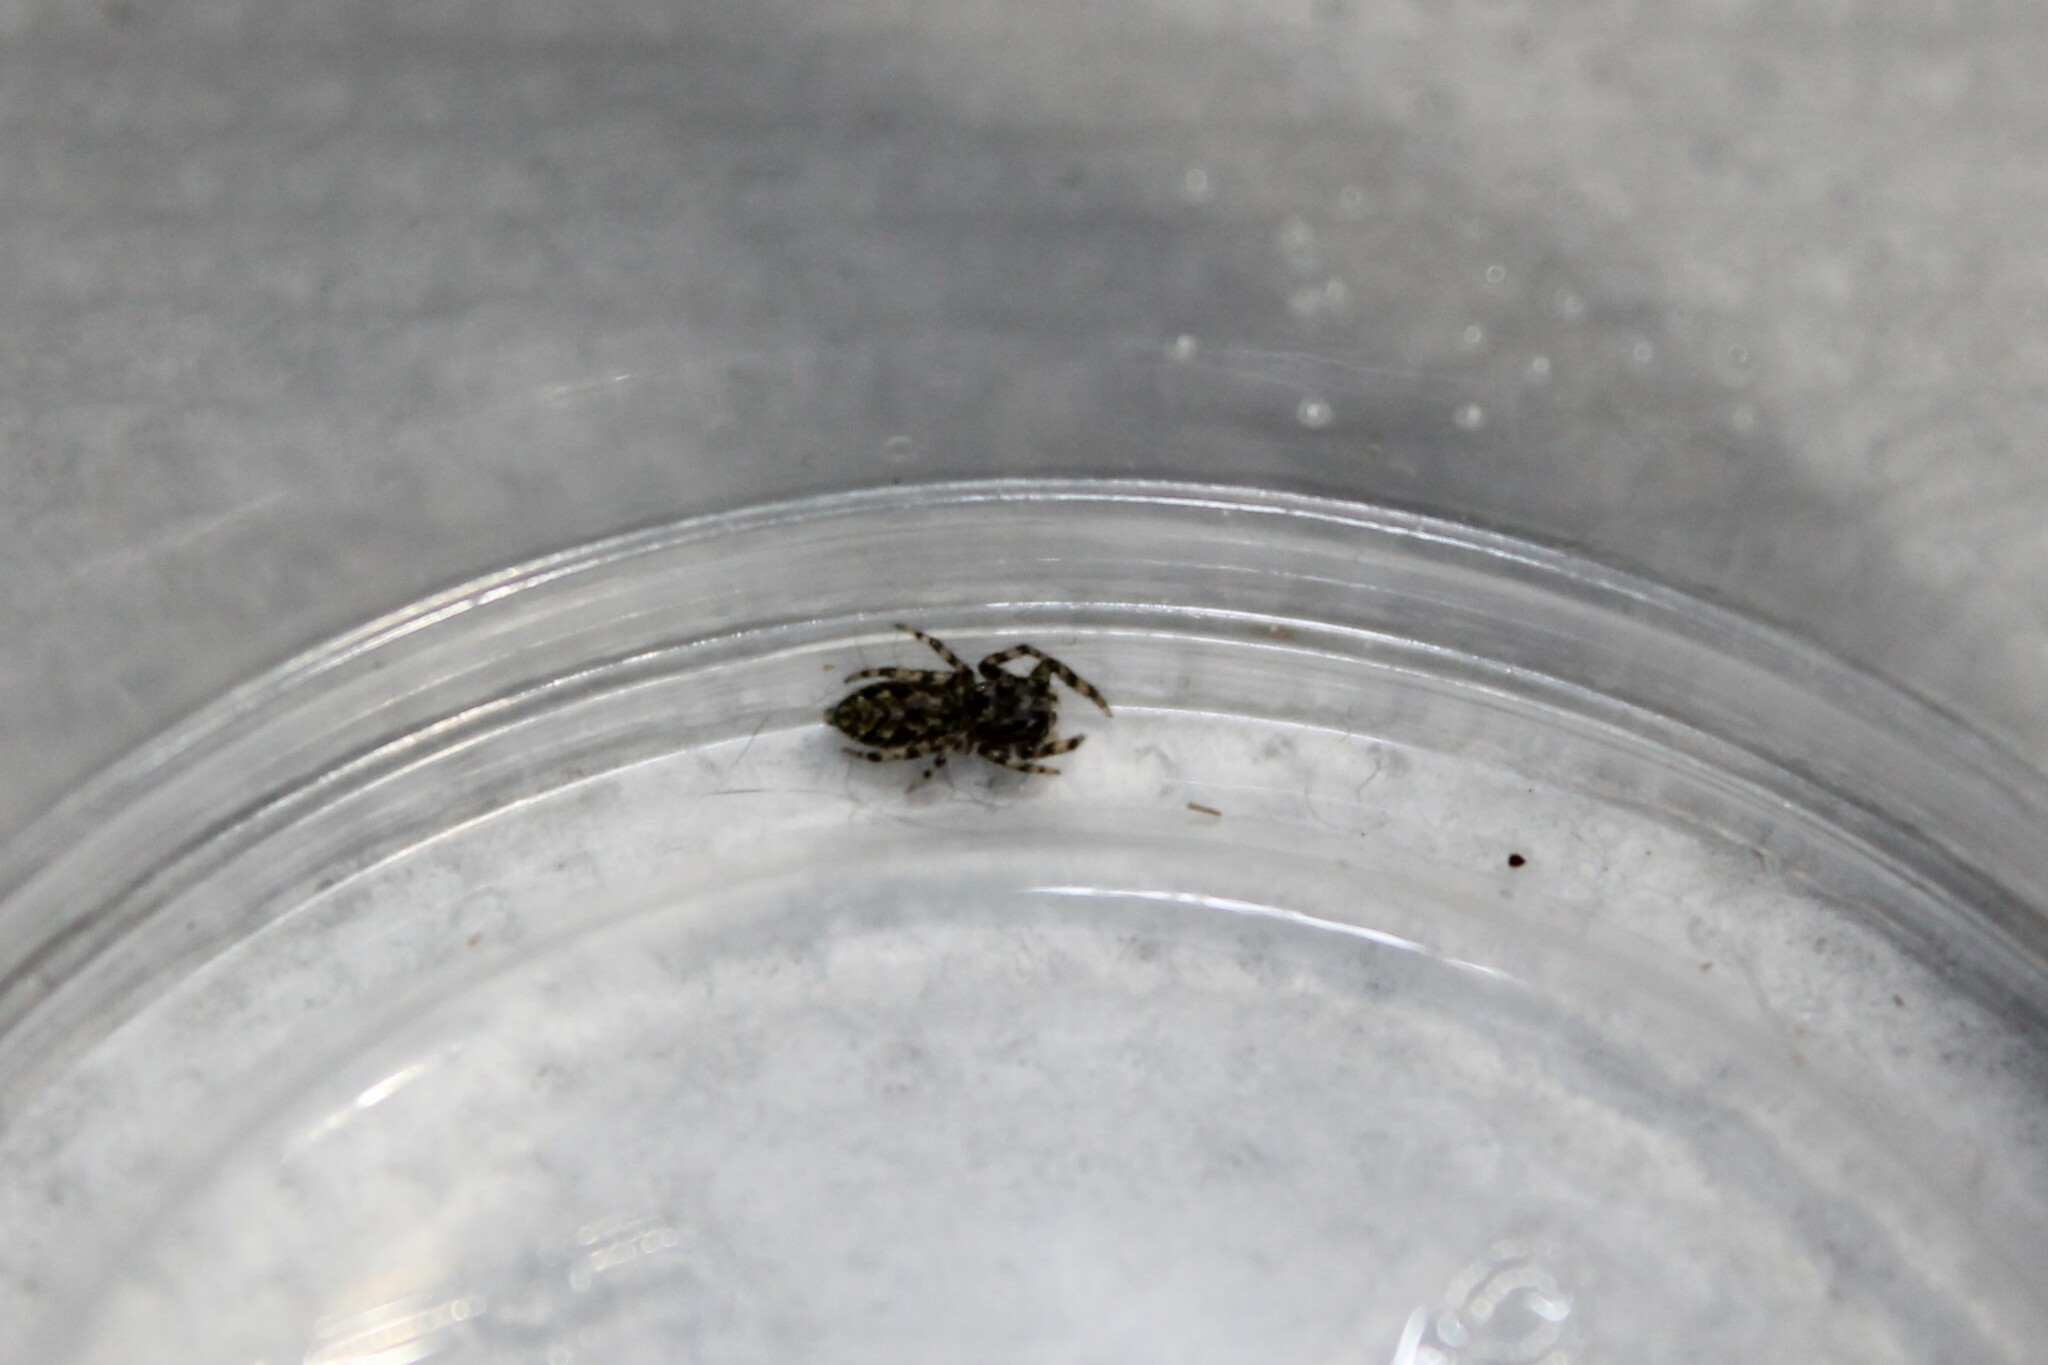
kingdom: Animalia
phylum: Arthropoda
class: Arachnida
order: Araneae
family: Salticidae
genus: Platycryptus
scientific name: Platycryptus undatus
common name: Tan jumping spider
